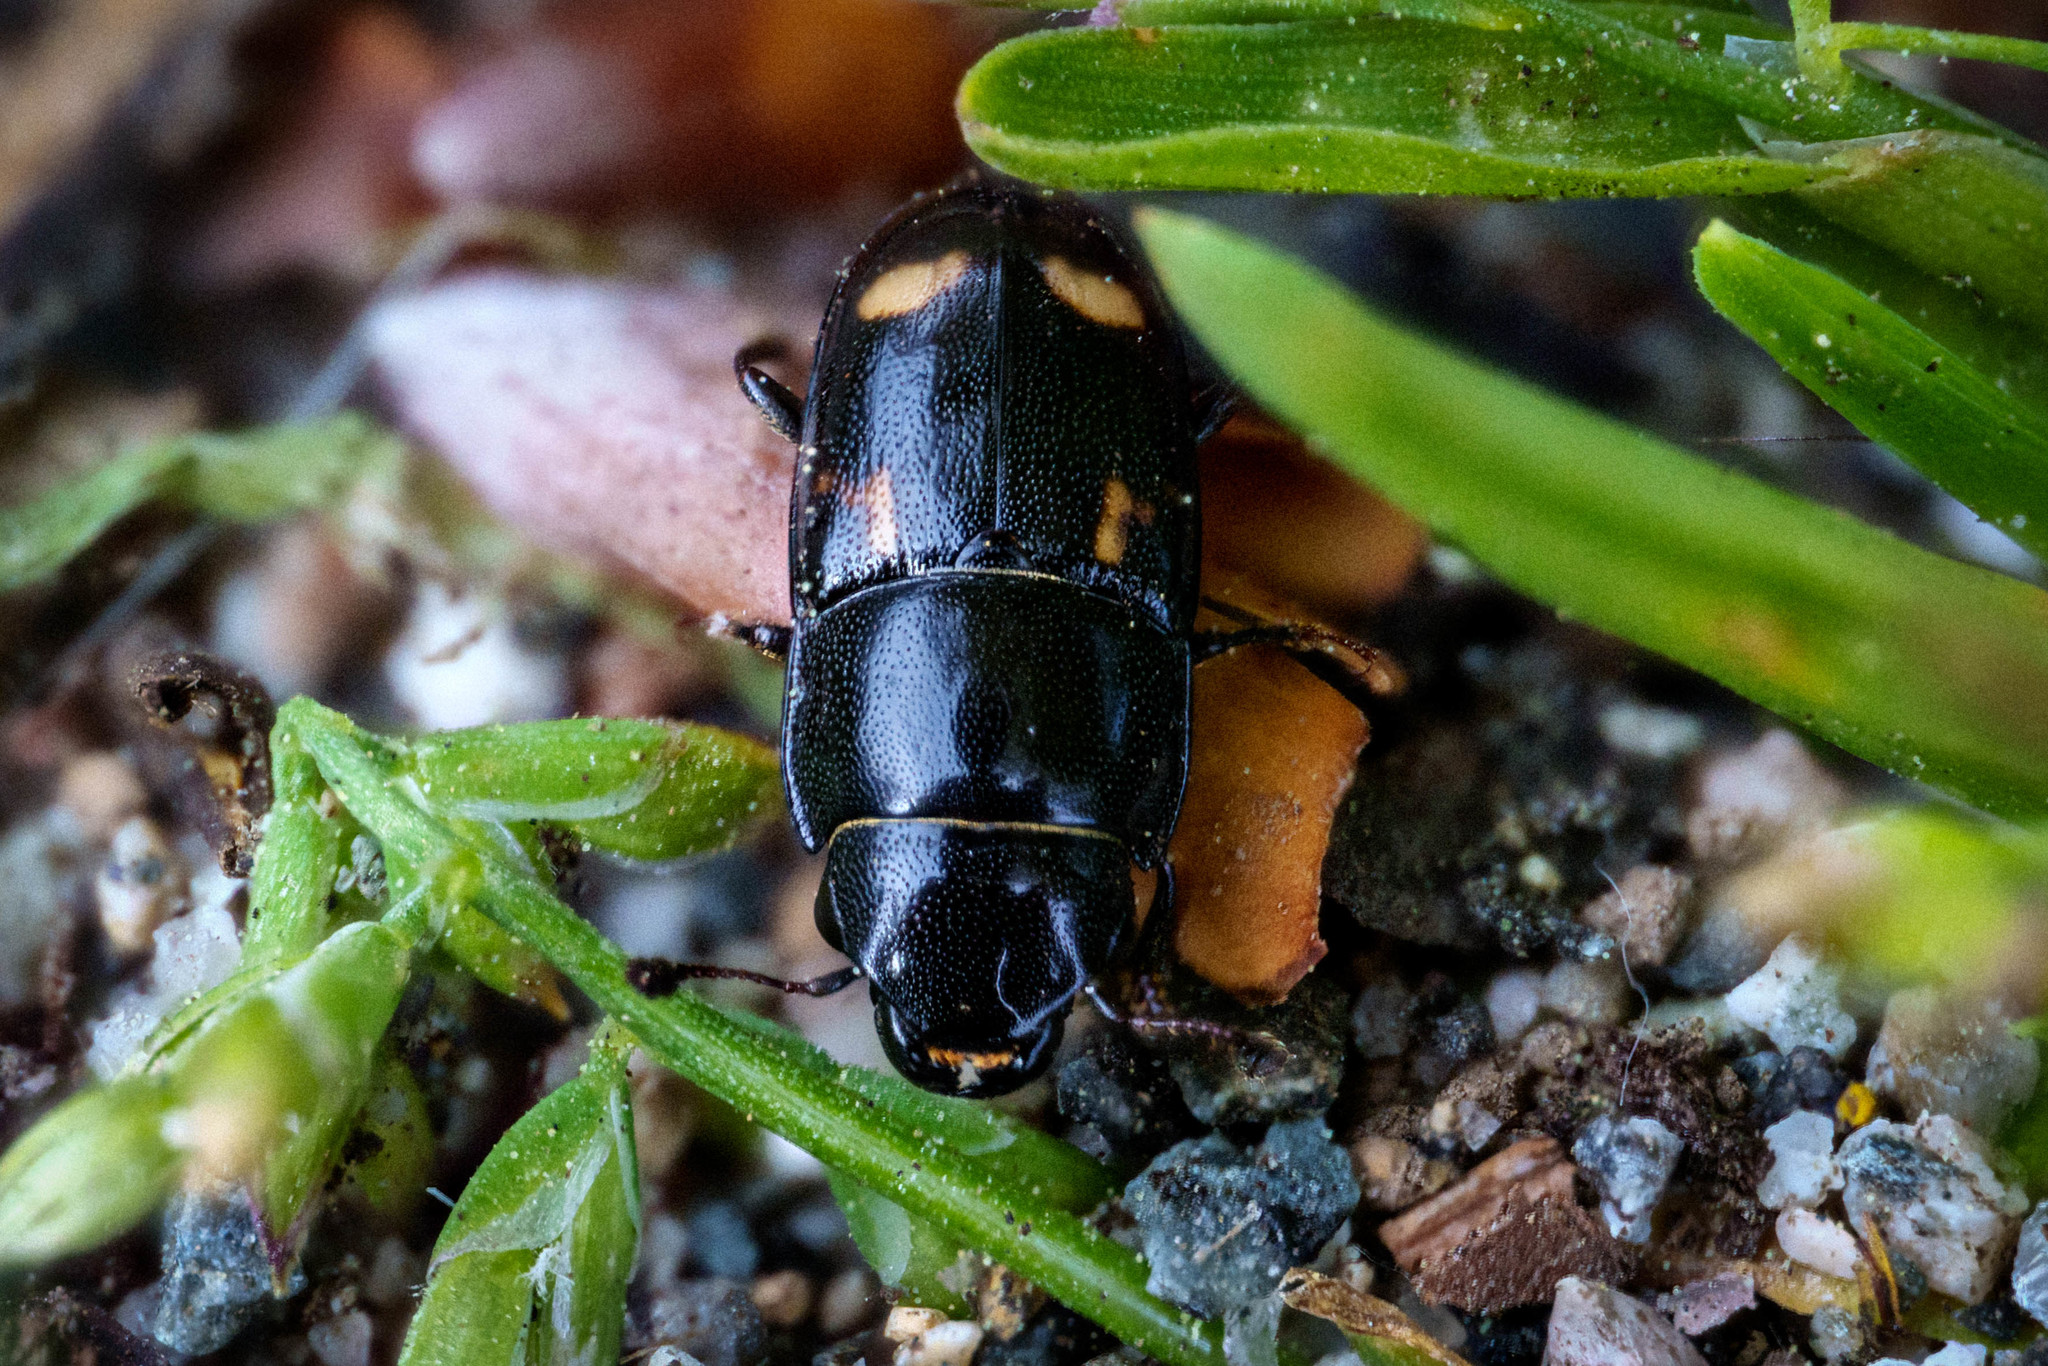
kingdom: Animalia
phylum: Arthropoda
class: Insecta
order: Coleoptera
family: Nitidulidae
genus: Glischrochilus
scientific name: Glischrochilus quadrisignatus
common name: Picnic beetle
